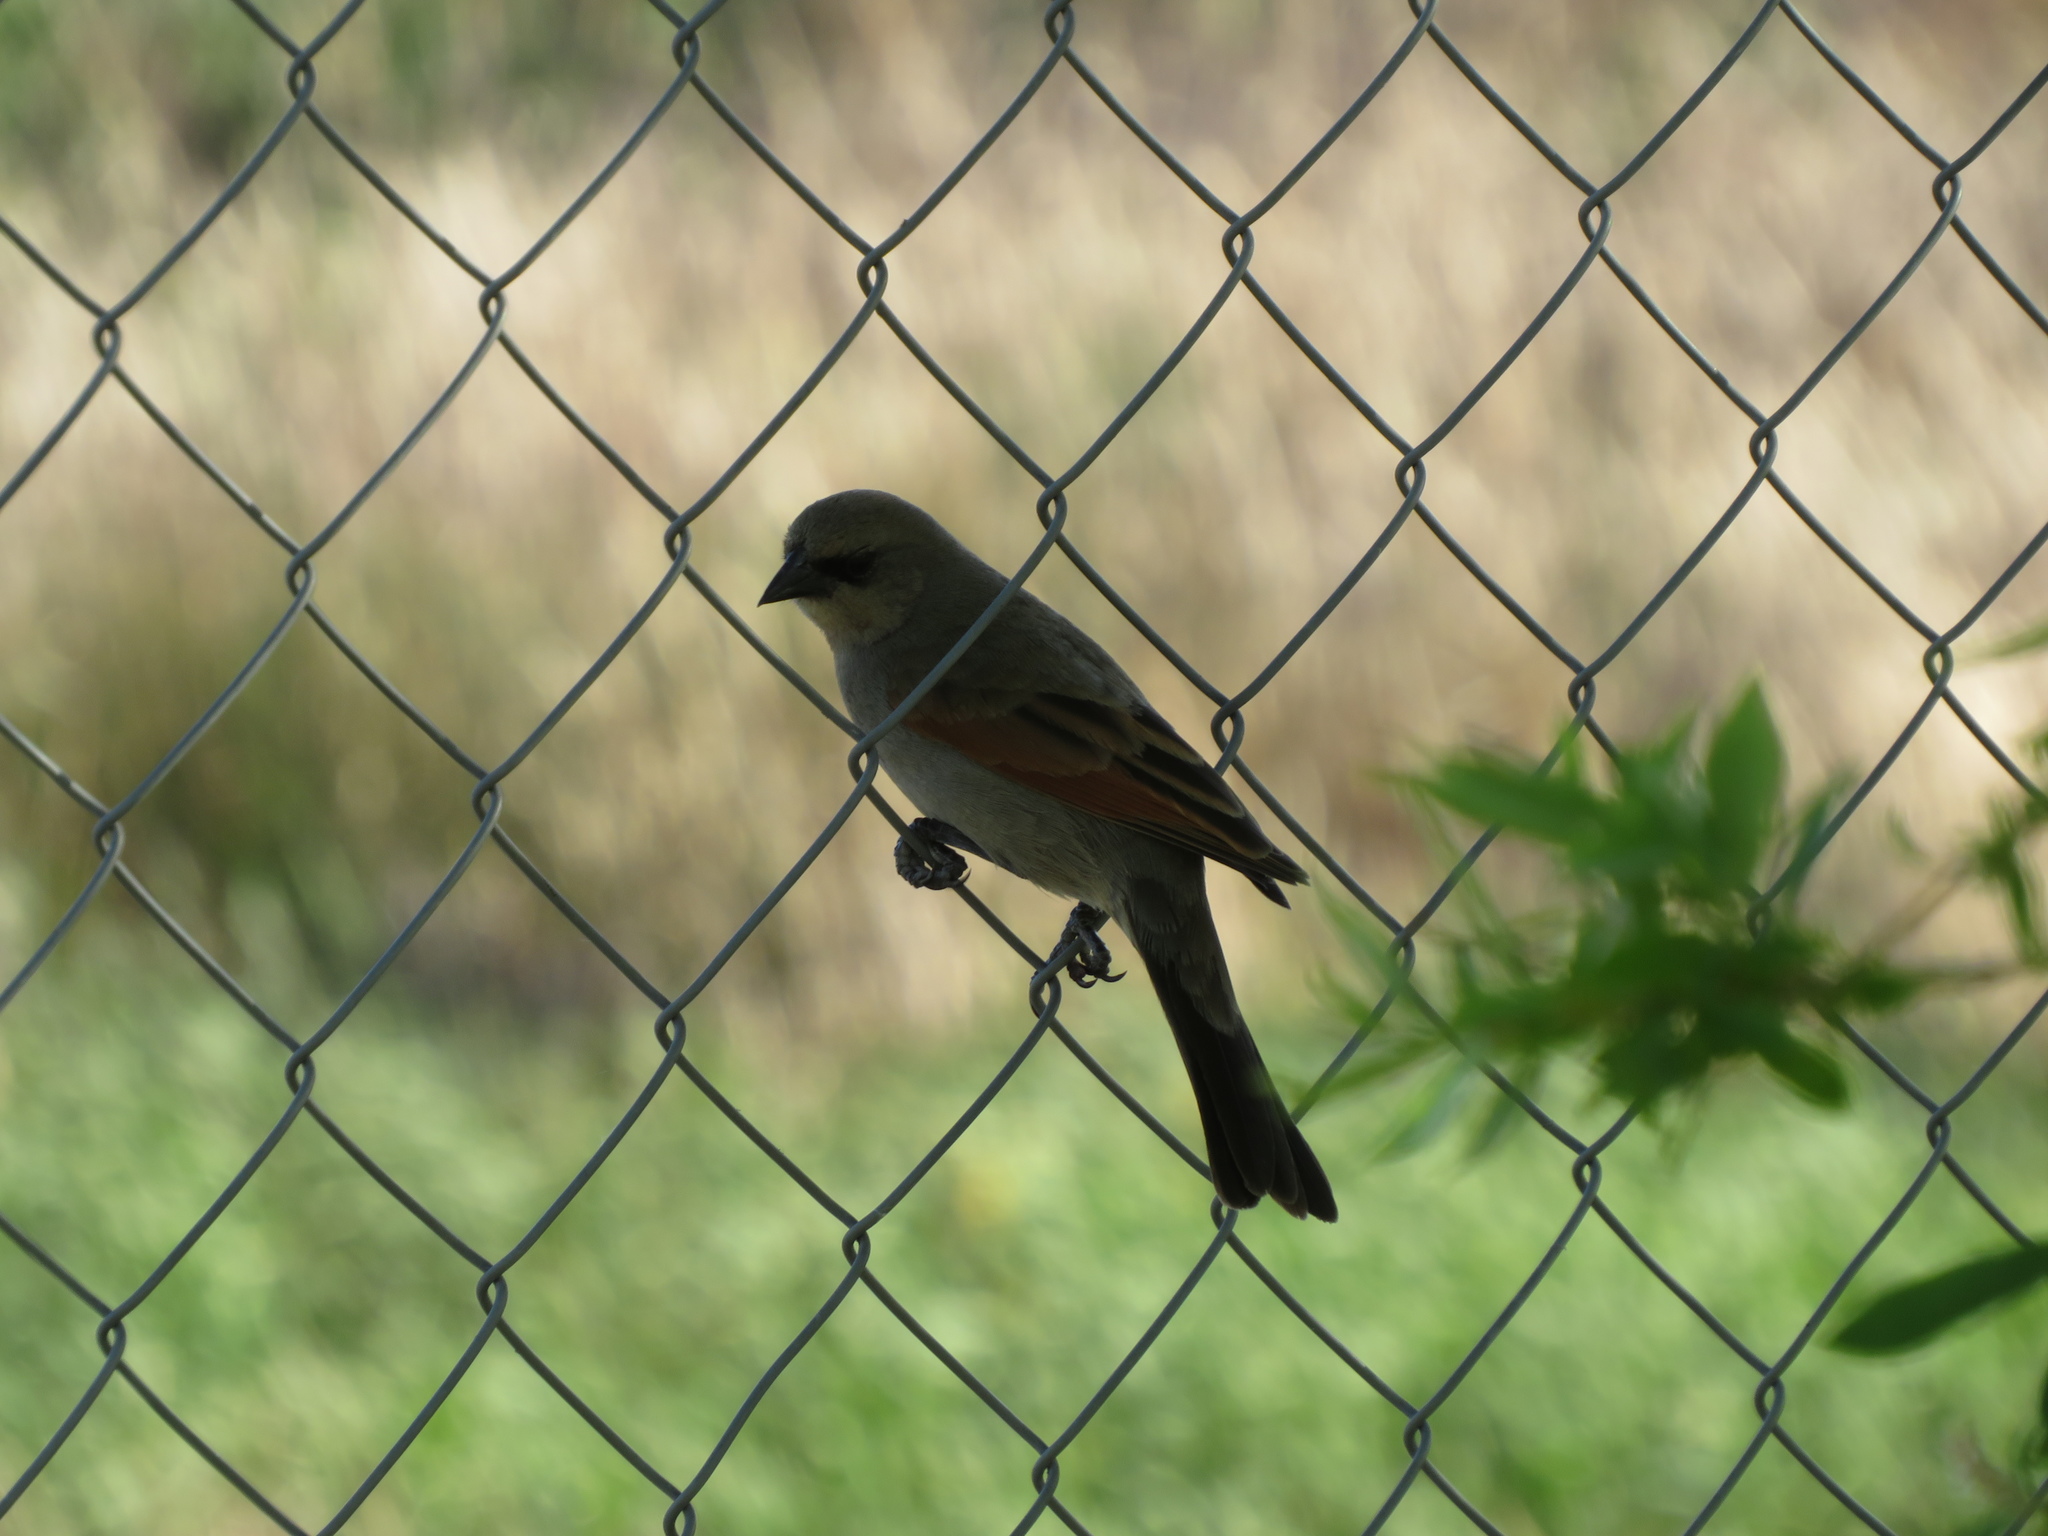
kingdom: Animalia
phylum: Chordata
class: Aves
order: Passeriformes
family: Icteridae
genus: Agelaioides
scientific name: Agelaioides badius
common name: Baywing
